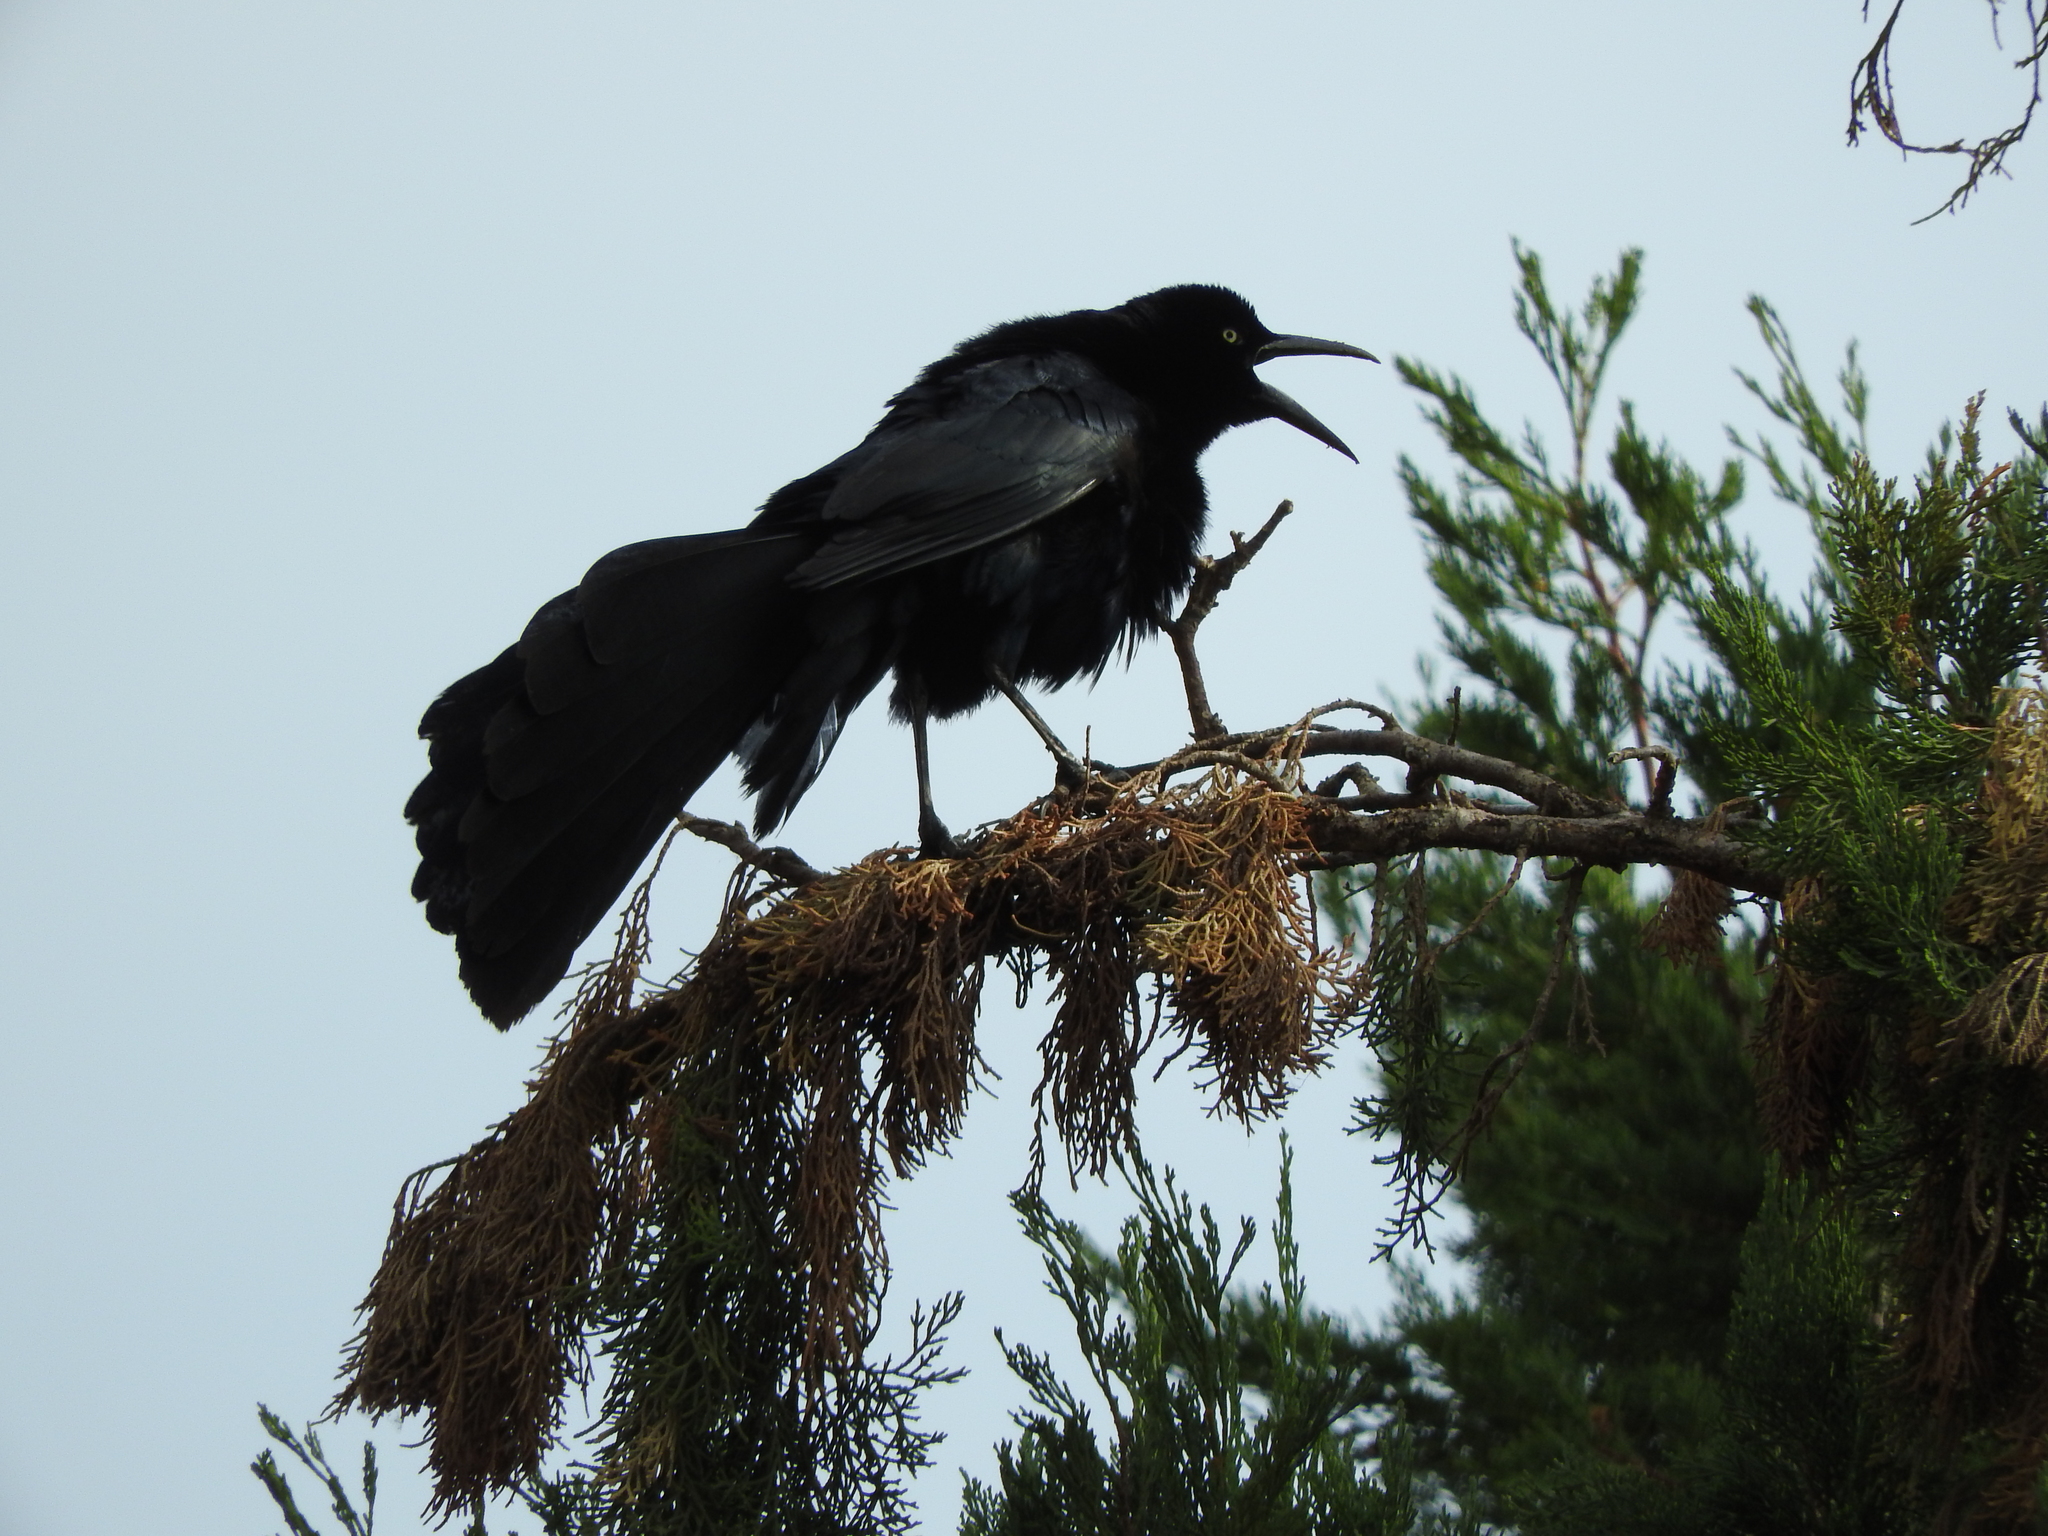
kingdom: Animalia
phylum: Chordata
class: Aves
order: Passeriformes
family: Icteridae
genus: Quiscalus
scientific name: Quiscalus mexicanus
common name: Great-tailed grackle
